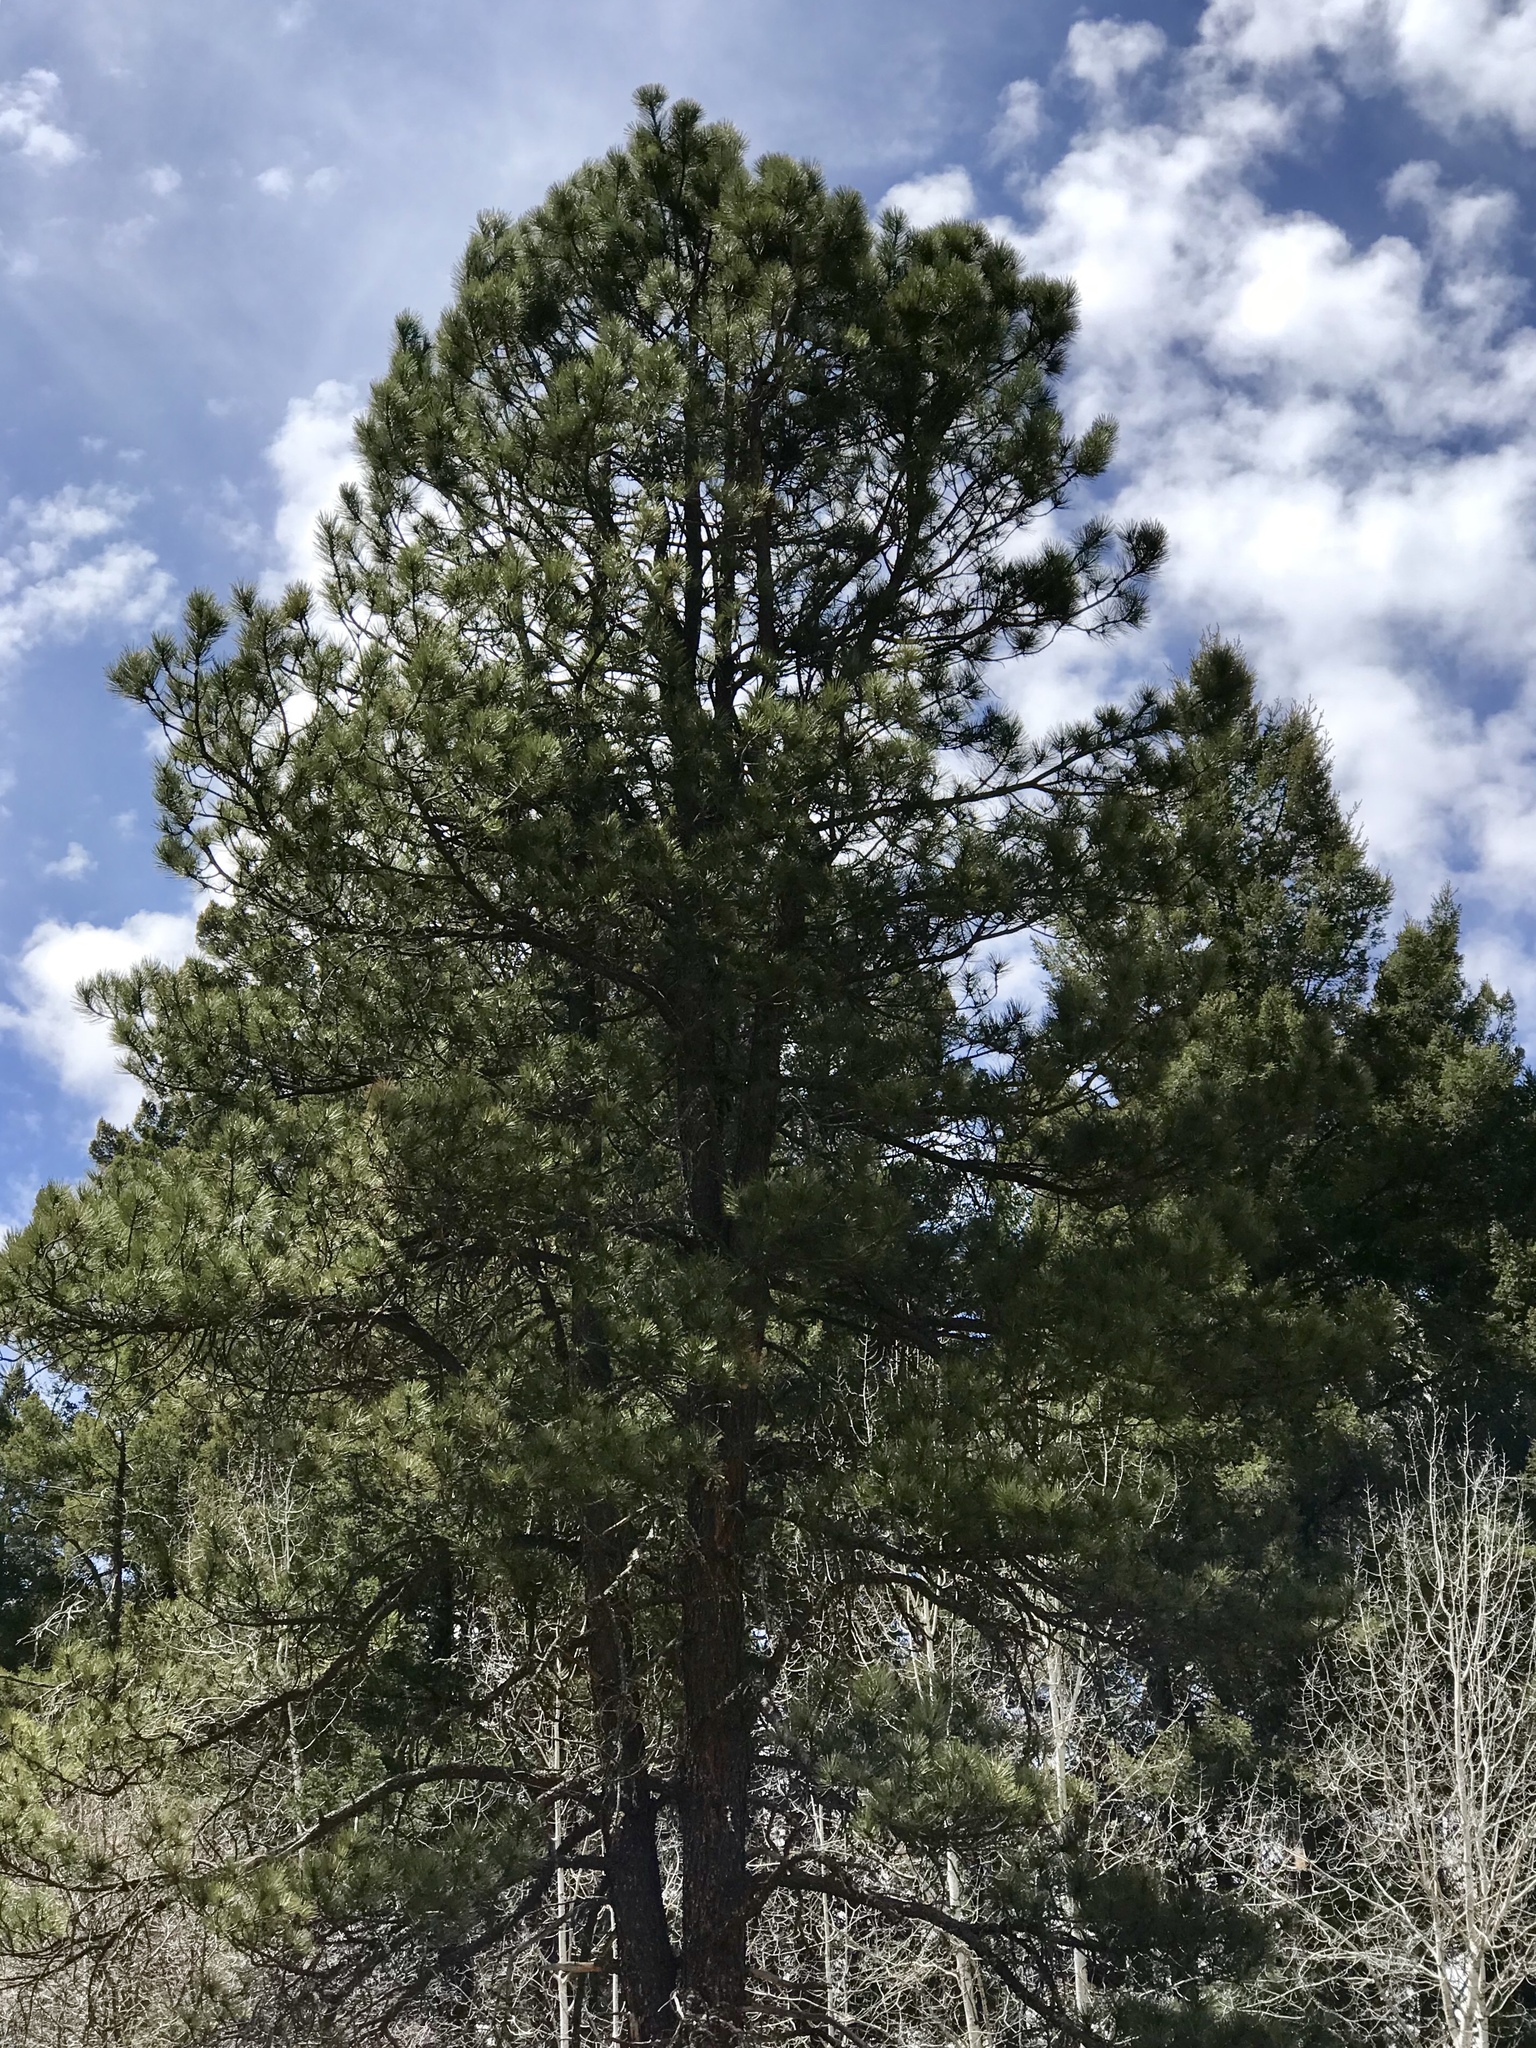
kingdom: Plantae
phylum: Tracheophyta
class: Pinopsida
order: Pinales
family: Pinaceae
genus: Pinus
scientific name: Pinus ponderosa
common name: Western yellow-pine
